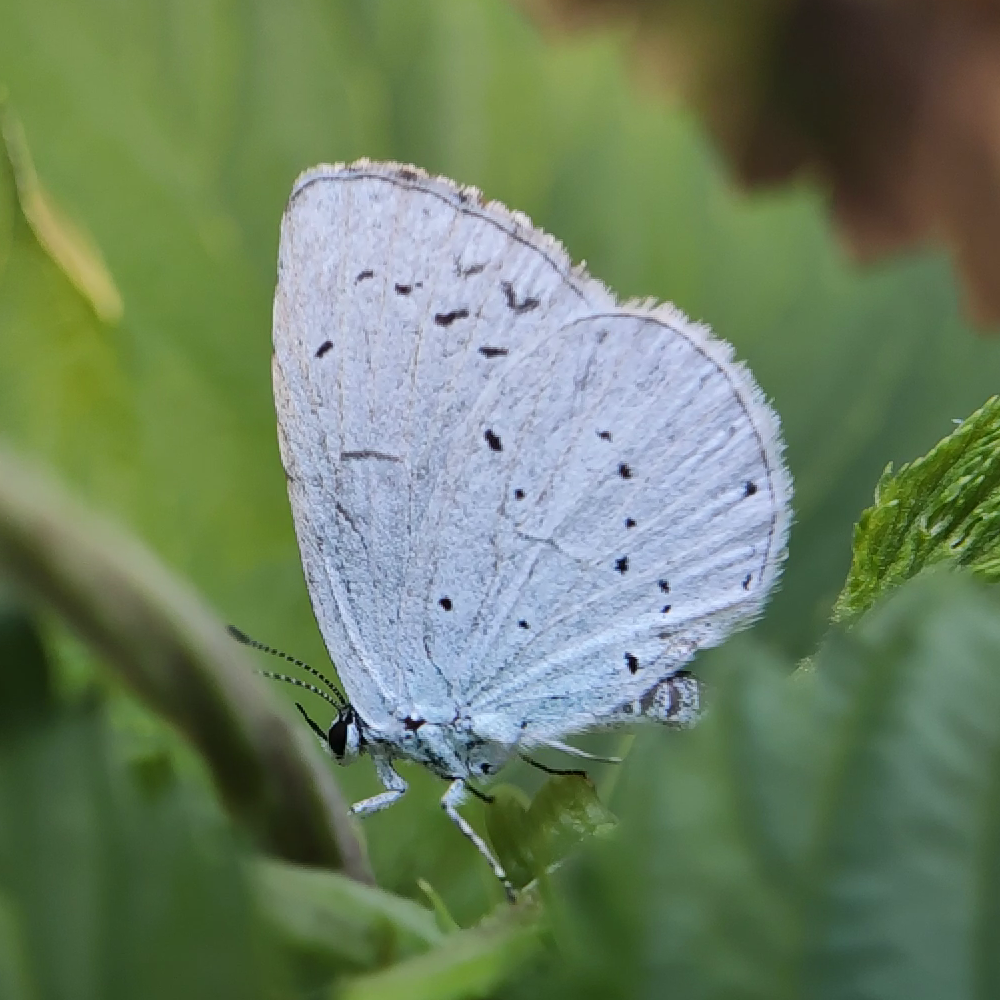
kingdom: Animalia
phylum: Arthropoda
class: Insecta
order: Lepidoptera
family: Lycaenidae
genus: Celastrina
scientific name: Celastrina argiolus
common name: Holly blue
